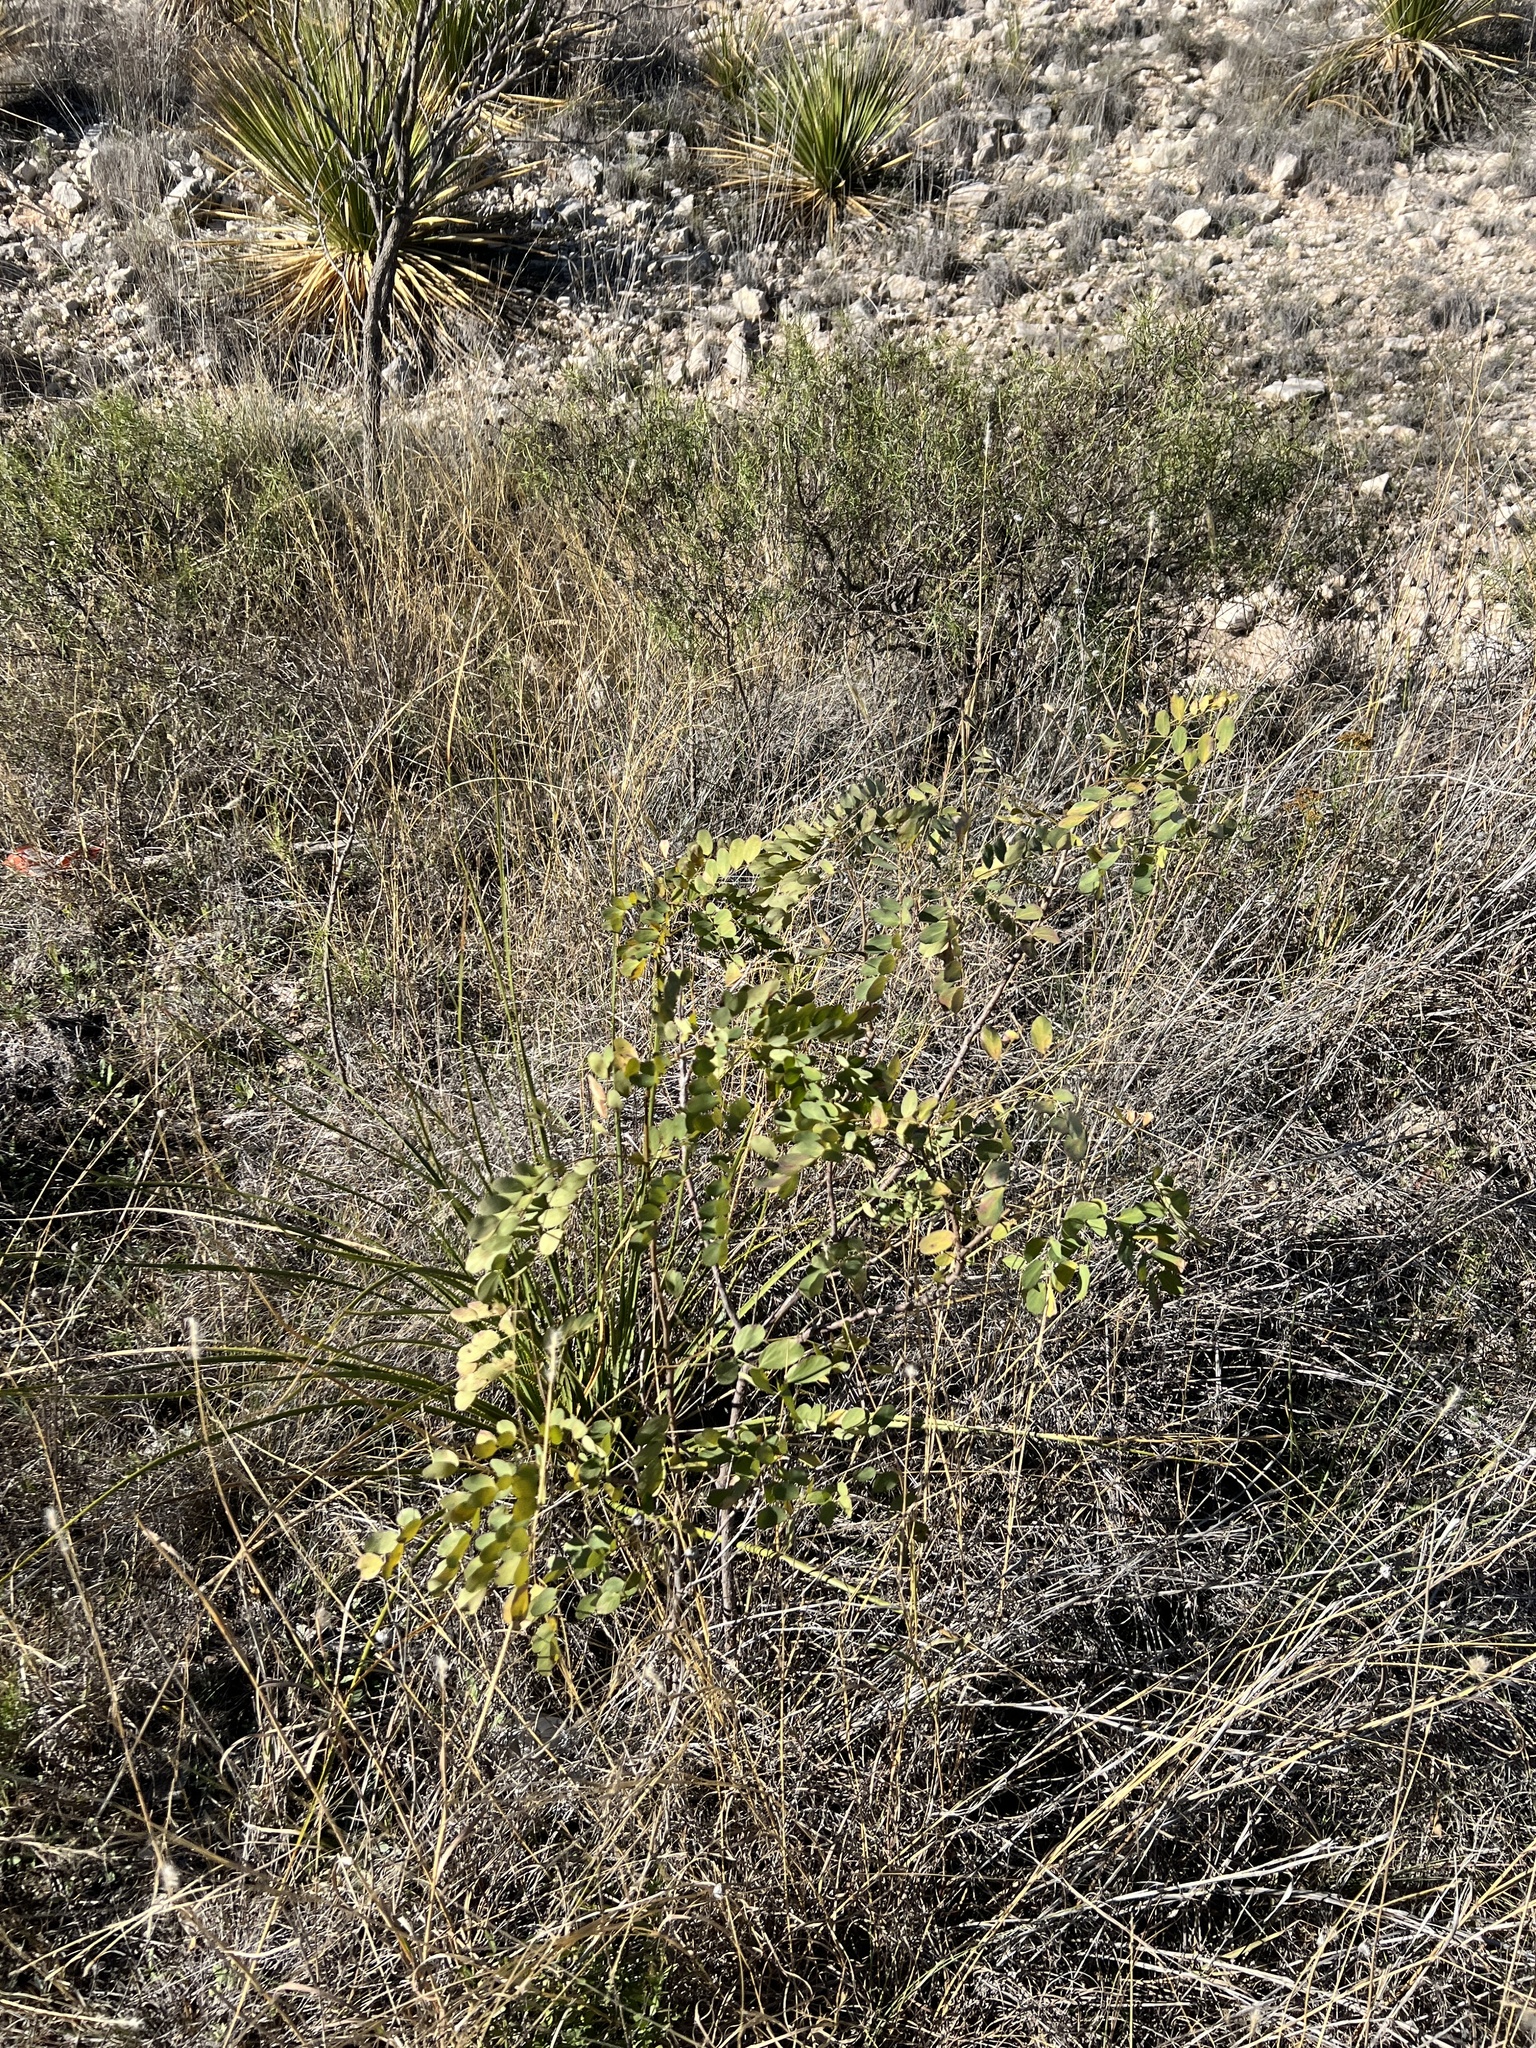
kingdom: Plantae
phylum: Tracheophyta
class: Magnoliopsida
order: Fabales
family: Fabaceae
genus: Leucaena
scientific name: Leucaena retusa
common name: Littleleaf leadtree
